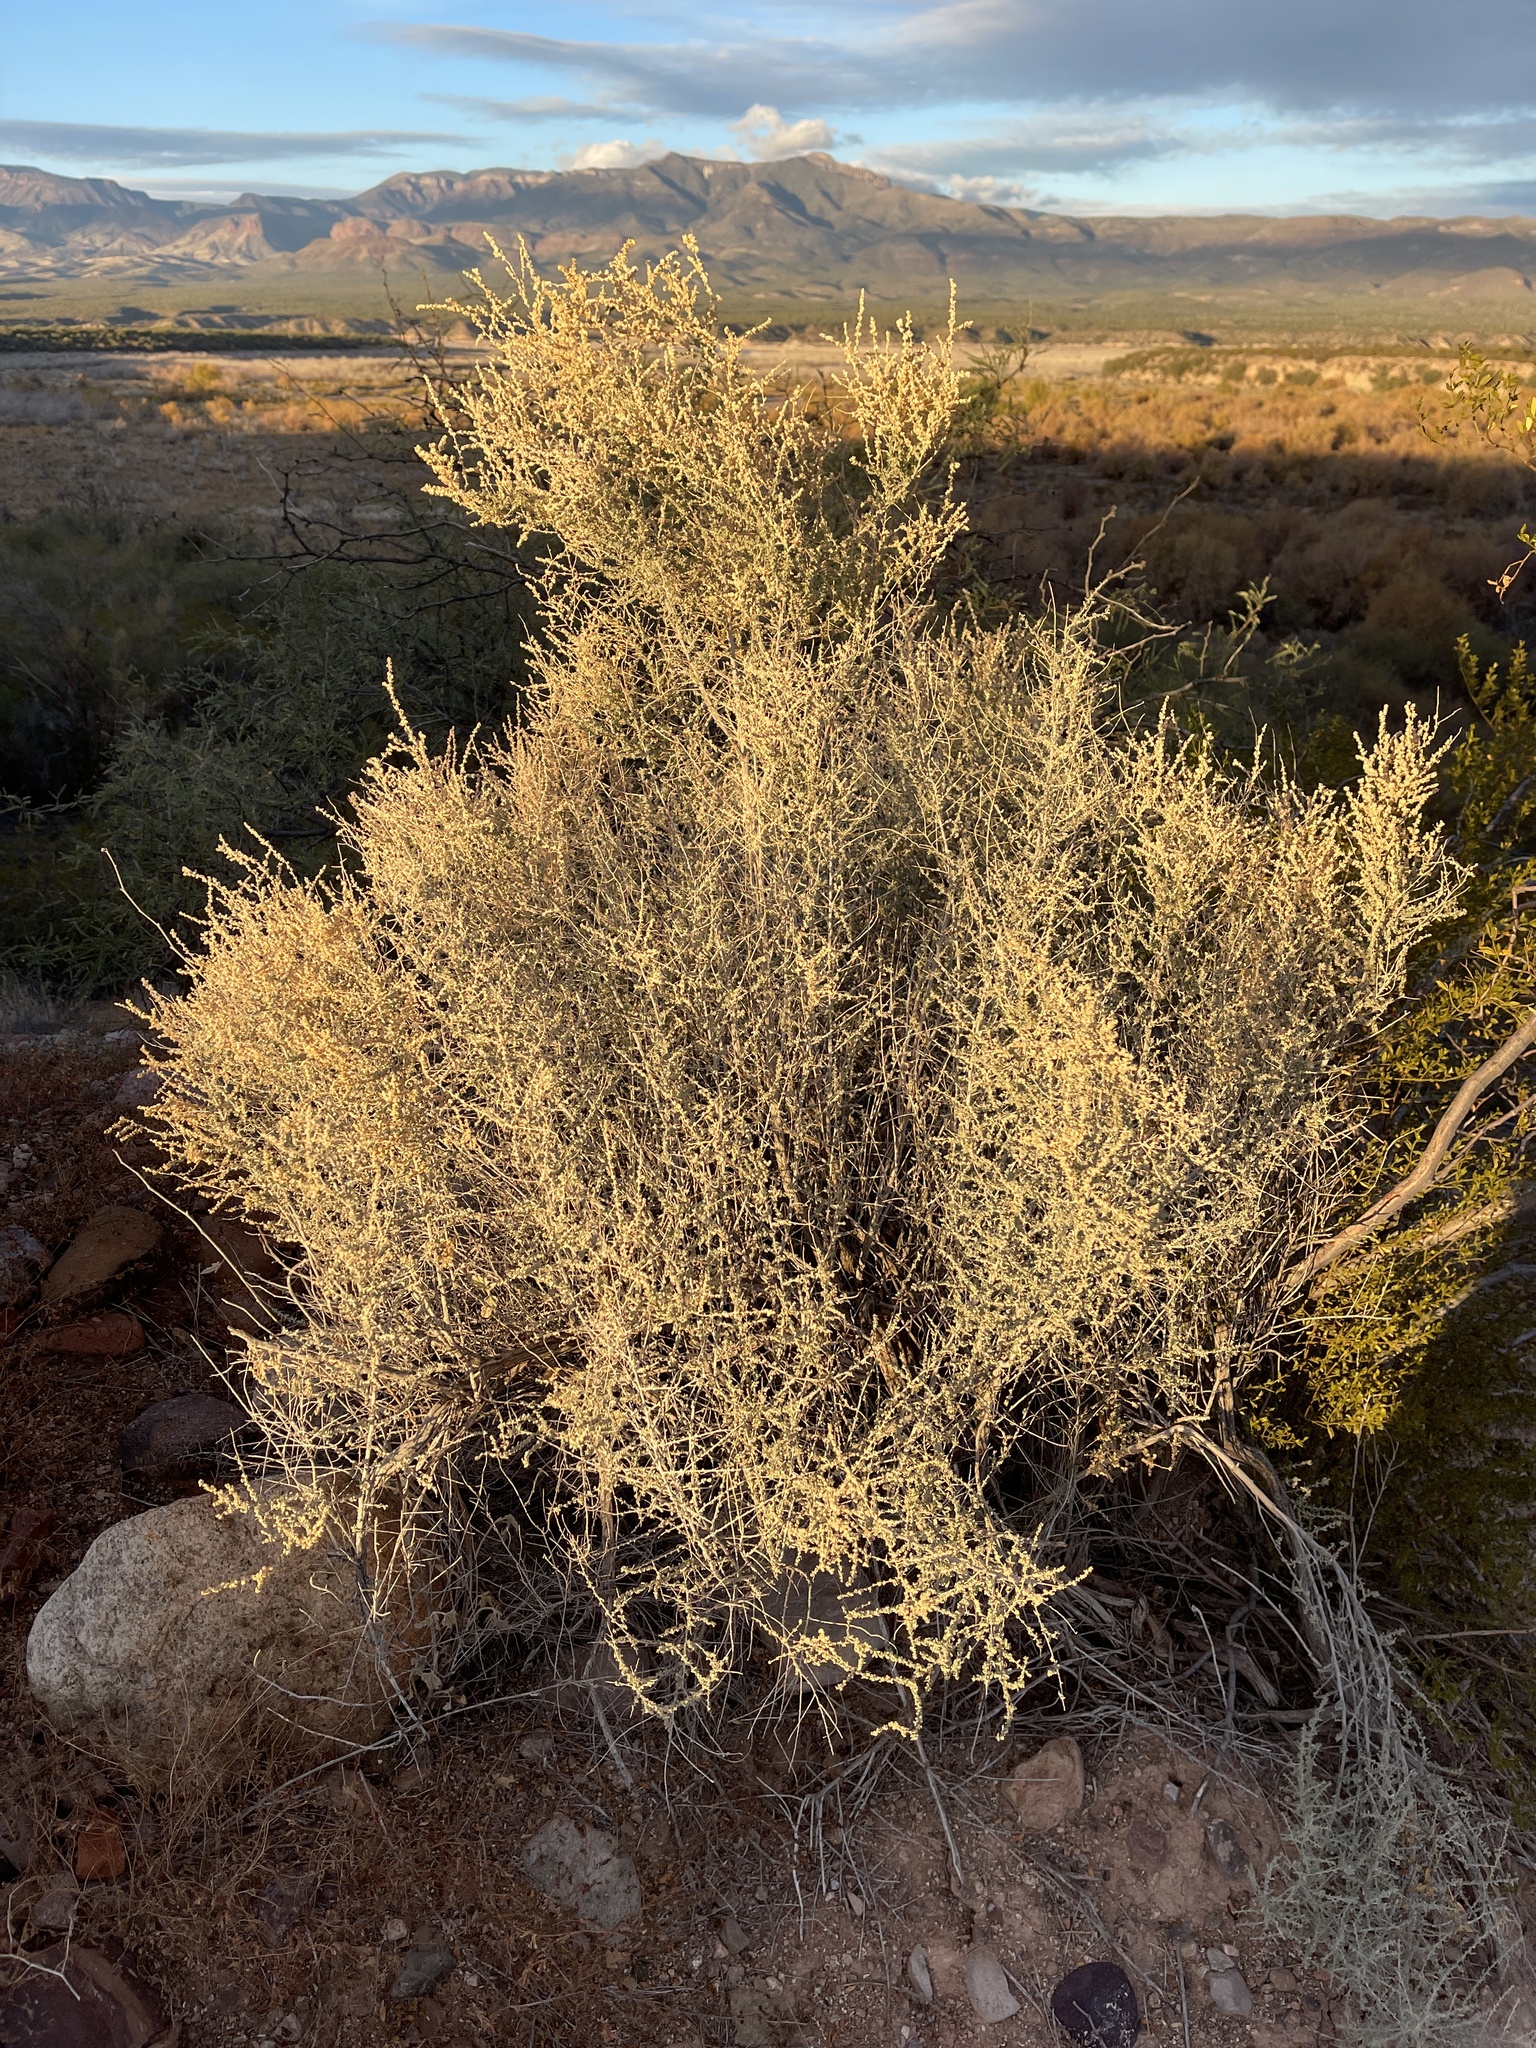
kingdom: Plantae
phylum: Tracheophyta
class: Magnoliopsida
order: Caryophyllales
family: Amaranthaceae
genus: Atriplex
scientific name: Atriplex polycarpa
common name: Desert saltbush
